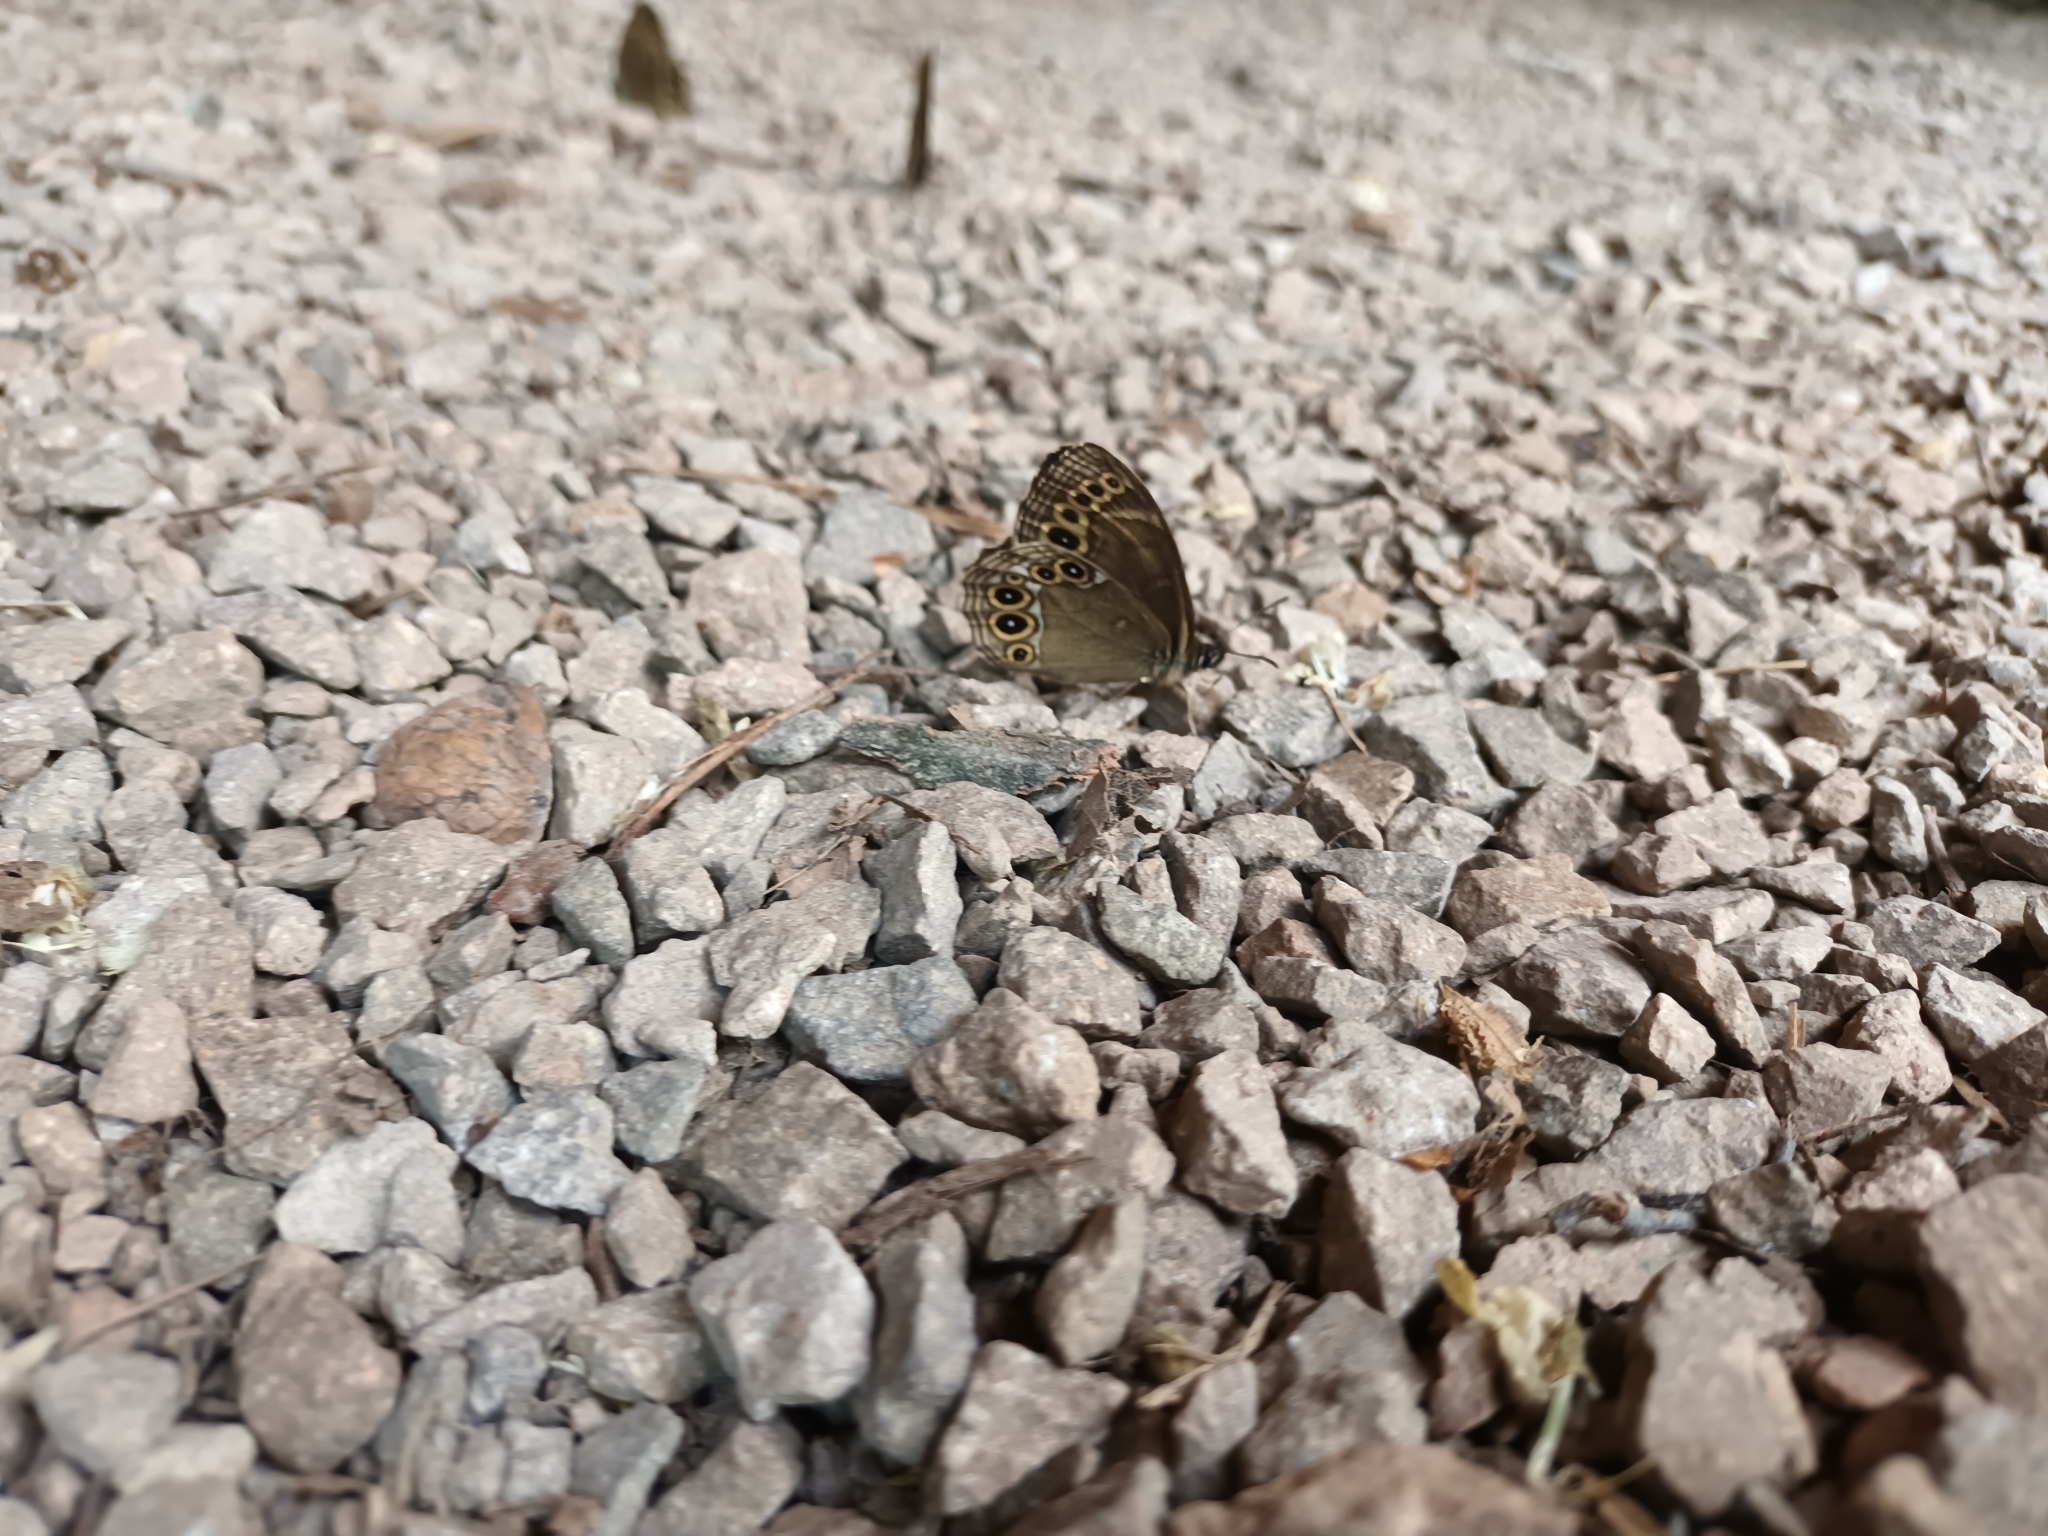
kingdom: Animalia
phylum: Arthropoda
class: Insecta
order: Lepidoptera
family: Nymphalidae
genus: Pararge
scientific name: Pararge Lopinga achine
